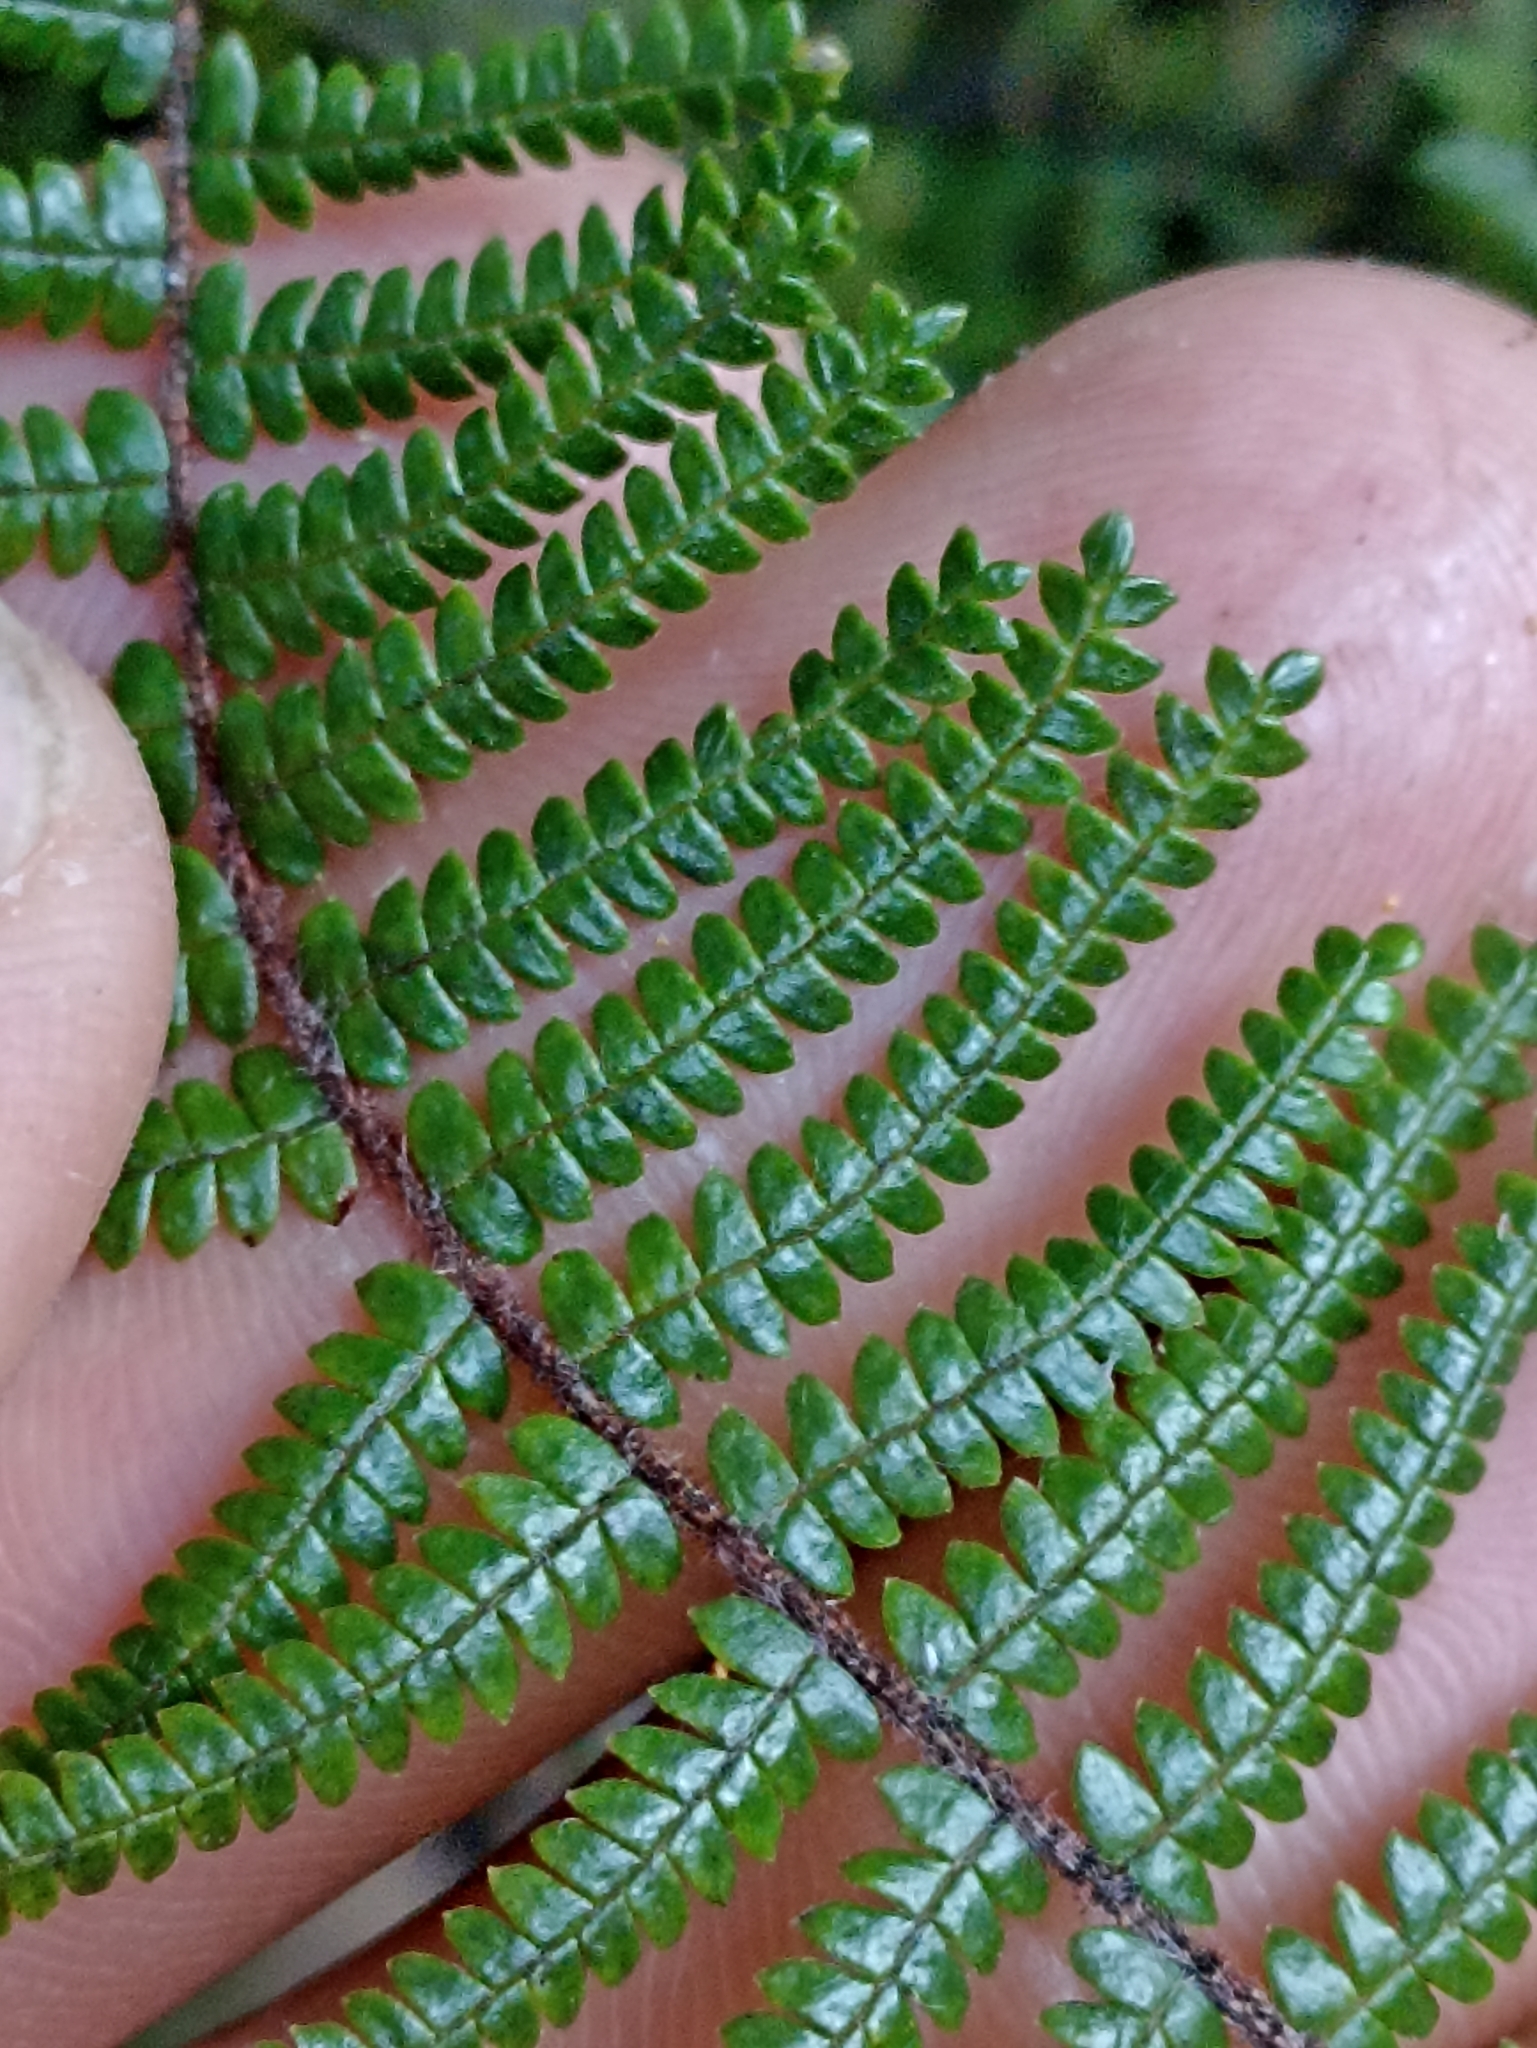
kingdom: Plantae
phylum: Tracheophyta
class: Polypodiopsida
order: Gleicheniales
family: Gleicheniaceae
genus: Gleichenia
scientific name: Gleichenia microphylla
